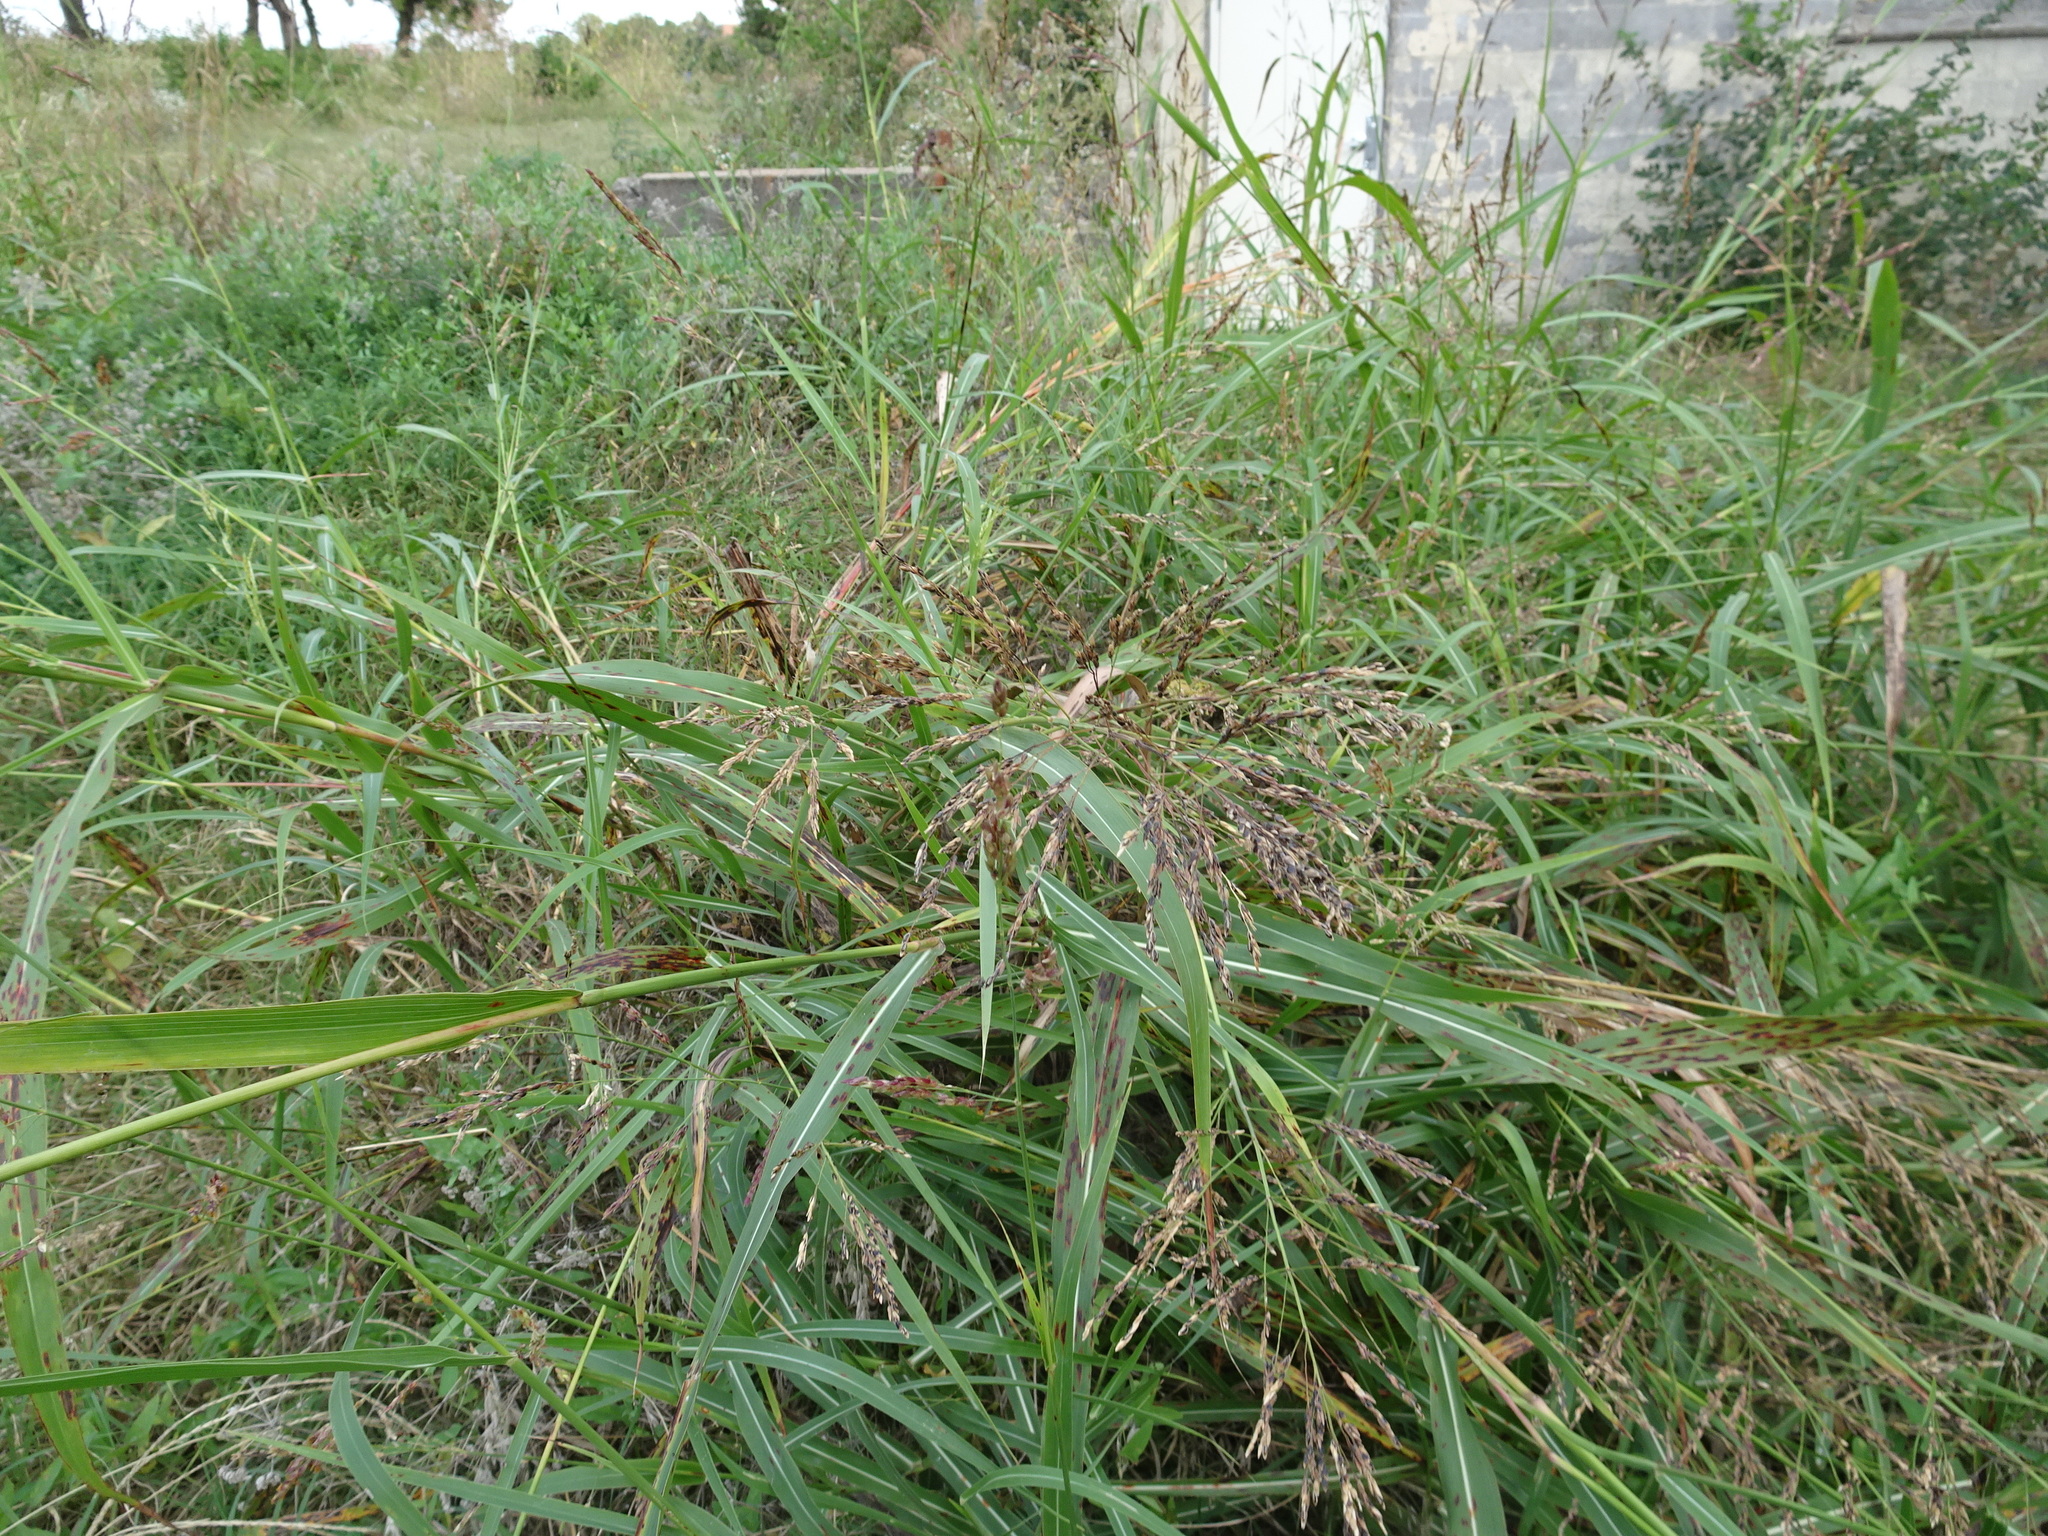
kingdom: Plantae
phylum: Tracheophyta
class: Liliopsida
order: Poales
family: Poaceae
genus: Sorghum
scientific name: Sorghum halepense
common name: Johnson-grass
